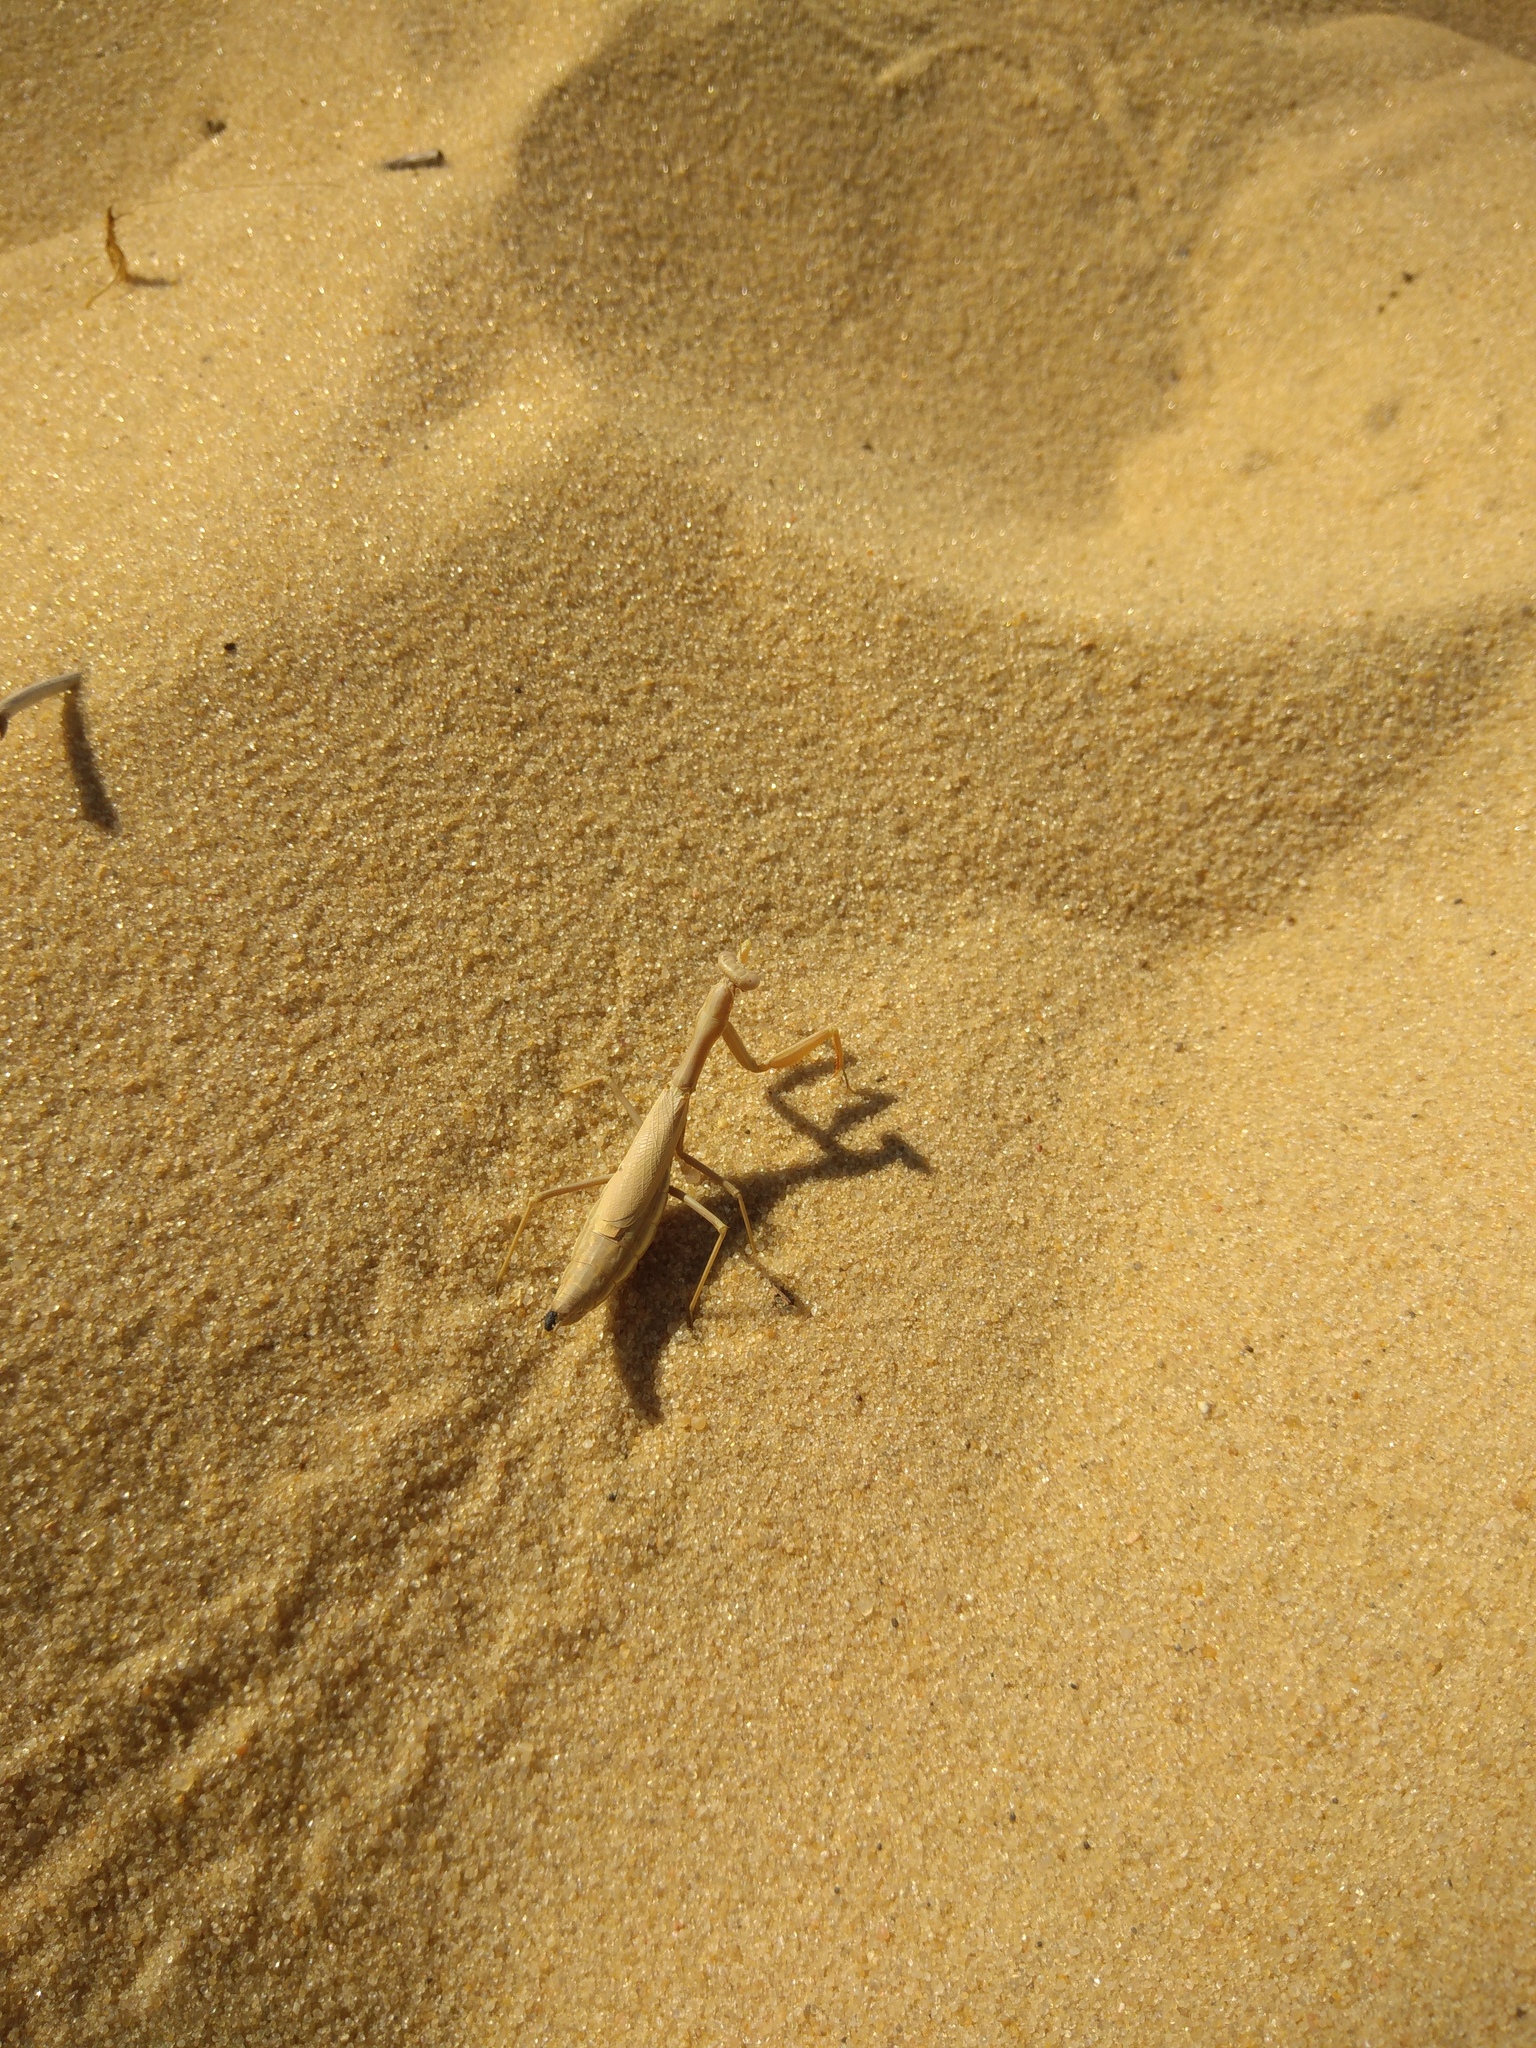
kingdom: Animalia
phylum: Arthropoda
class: Insecta
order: Mantodea
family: Eremiaphilidae
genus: Iris
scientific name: Iris polystictica
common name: Dot-winged mantis
